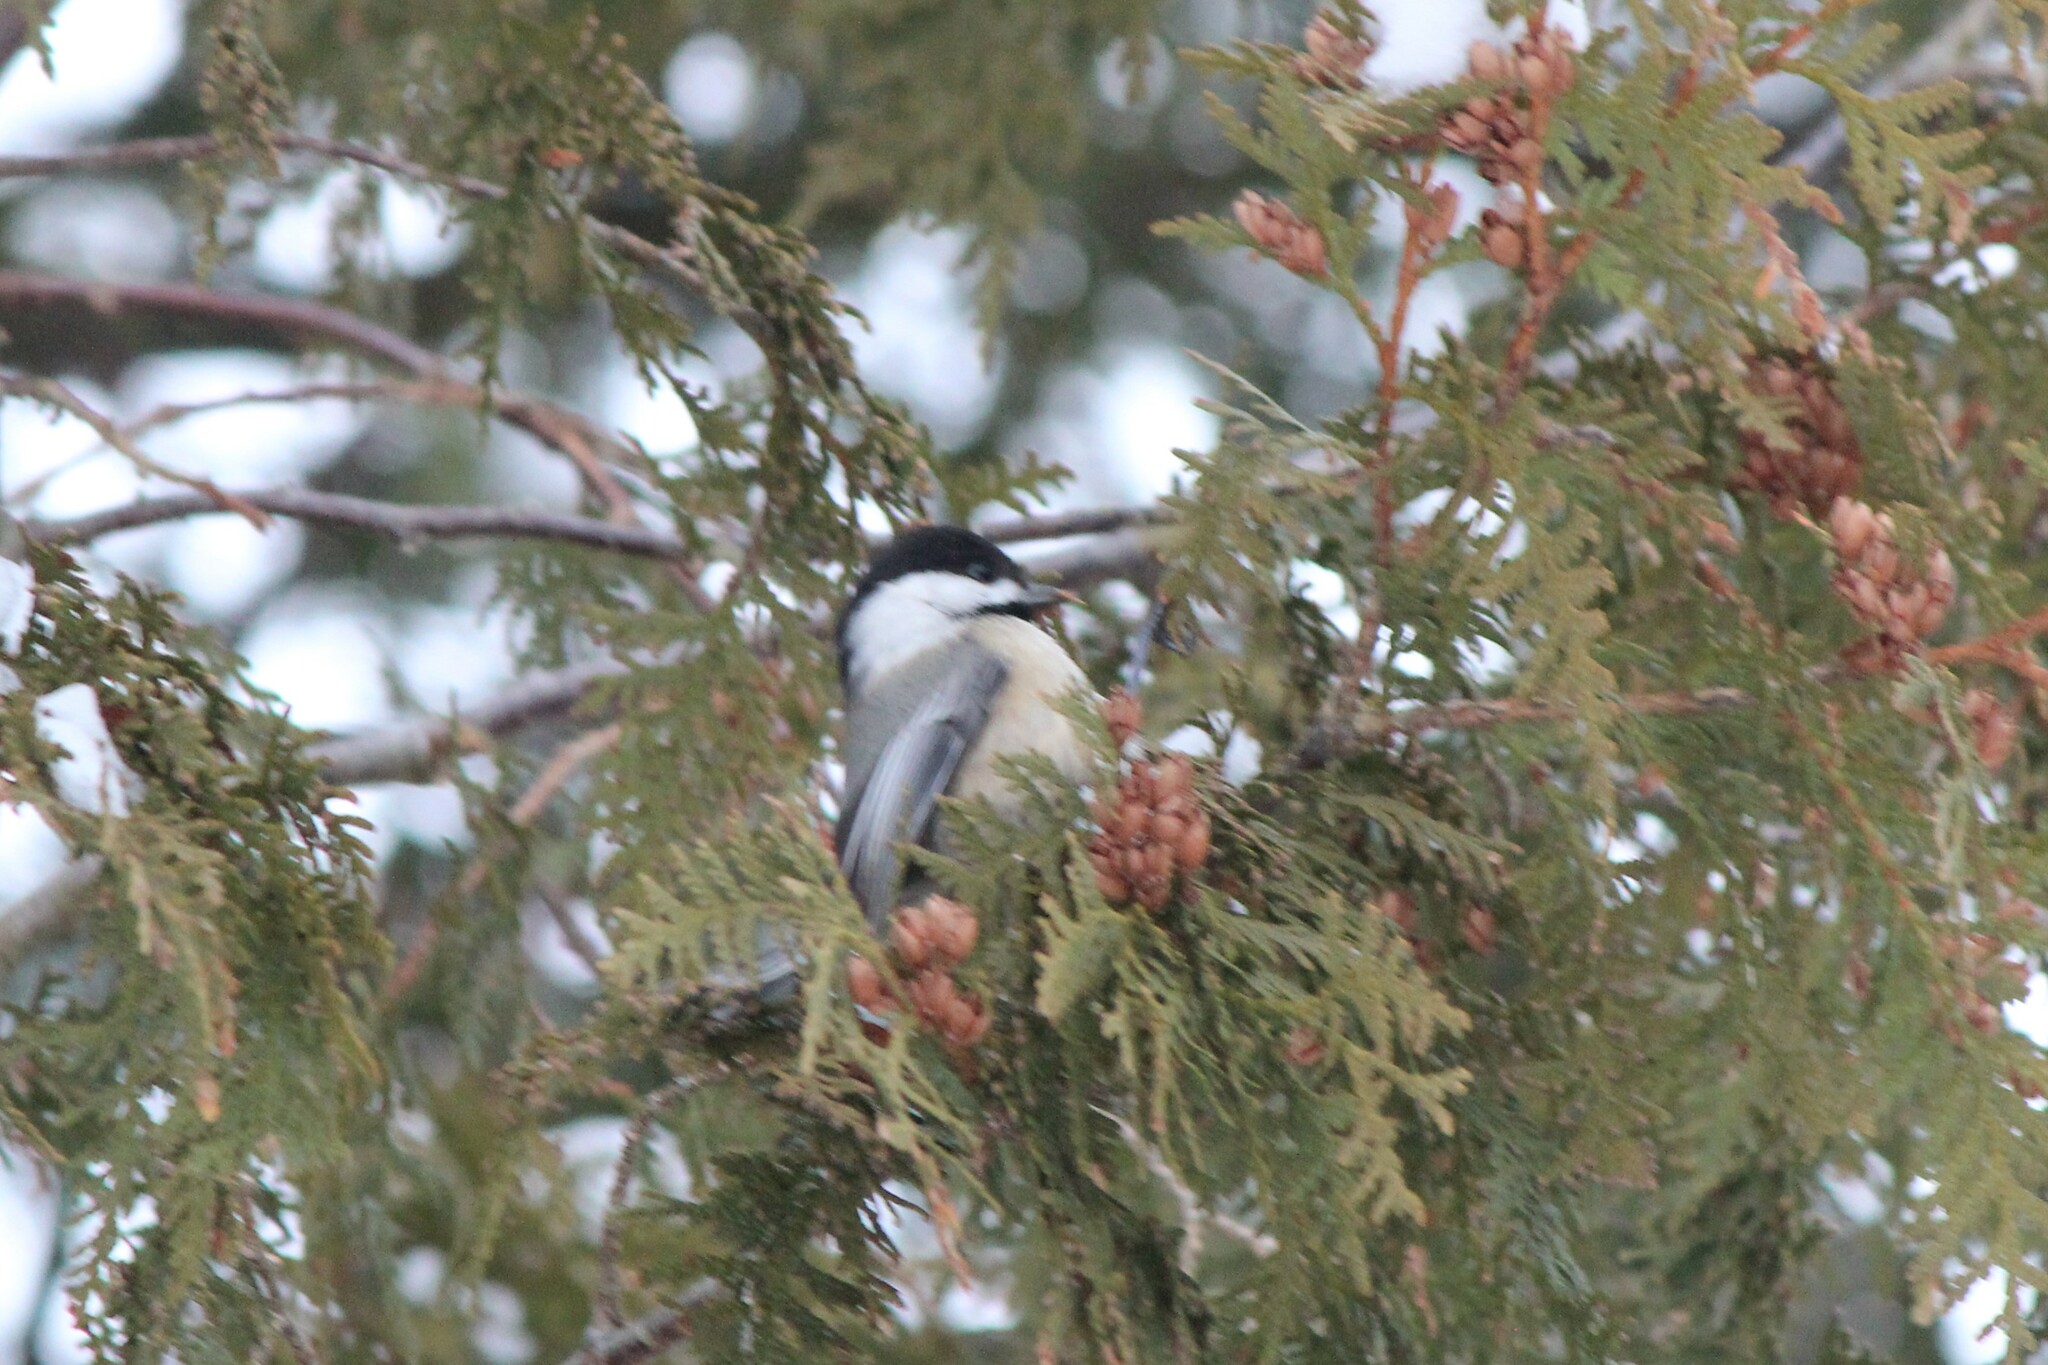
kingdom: Animalia
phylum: Chordata
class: Aves
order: Passeriformes
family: Paridae
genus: Poecile
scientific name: Poecile atricapillus
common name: Black-capped chickadee
